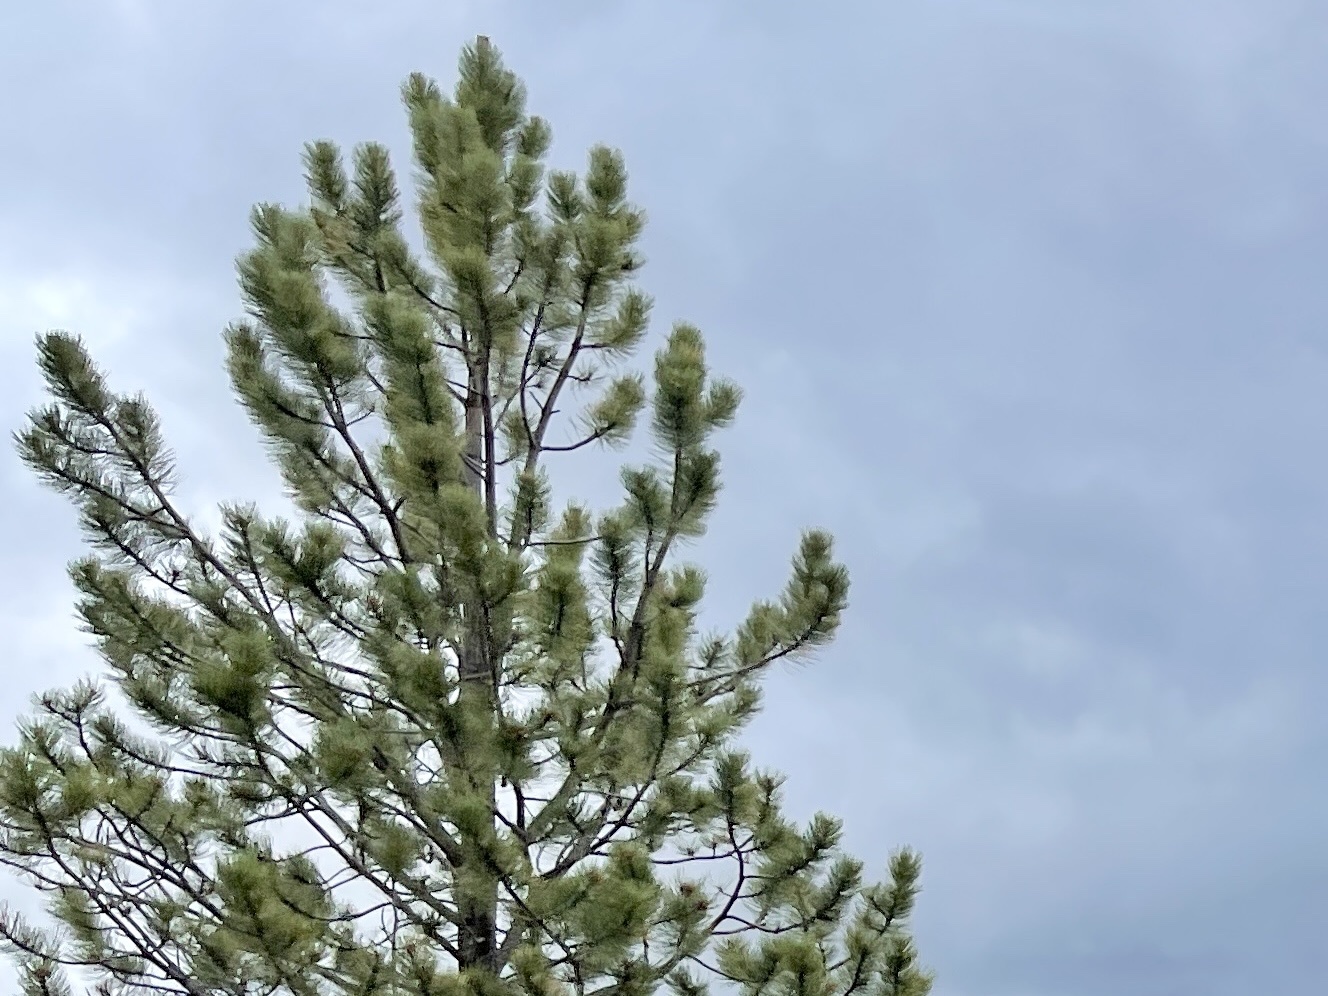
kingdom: Plantae
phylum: Tracheophyta
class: Pinopsida
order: Pinales
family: Pinaceae
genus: Pinus
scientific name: Pinus ponderosa
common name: Western yellow-pine
